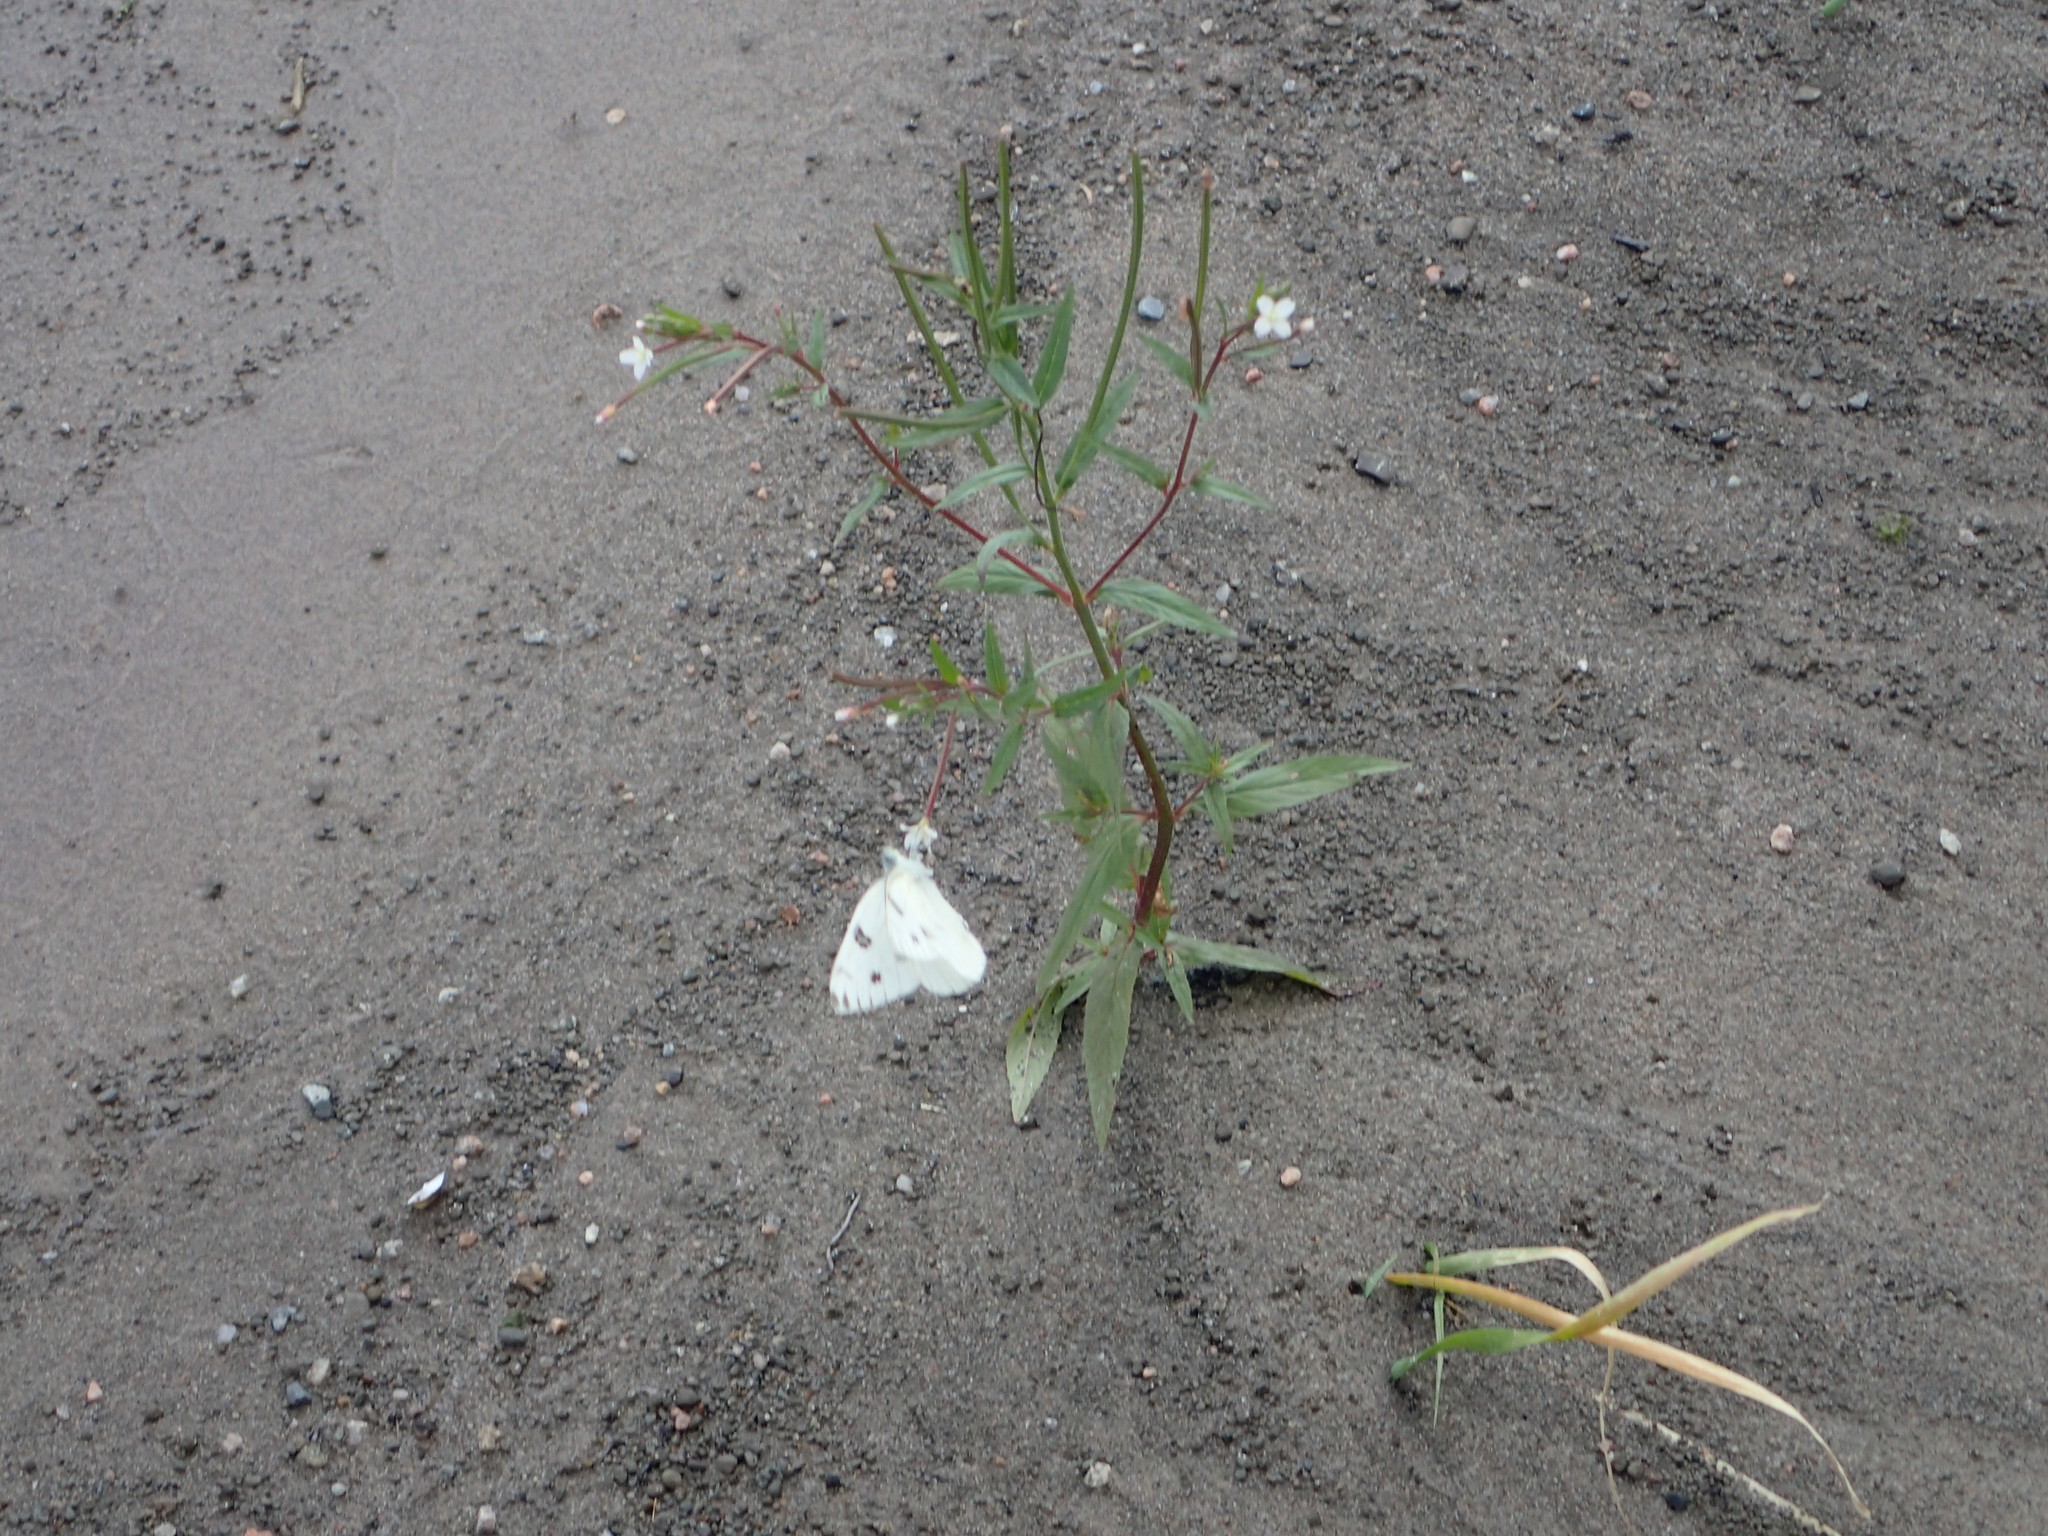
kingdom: Animalia
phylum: Arthropoda
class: Insecta
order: Lepidoptera
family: Pieridae
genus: Pontia
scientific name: Pontia protodice
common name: Checkered white
